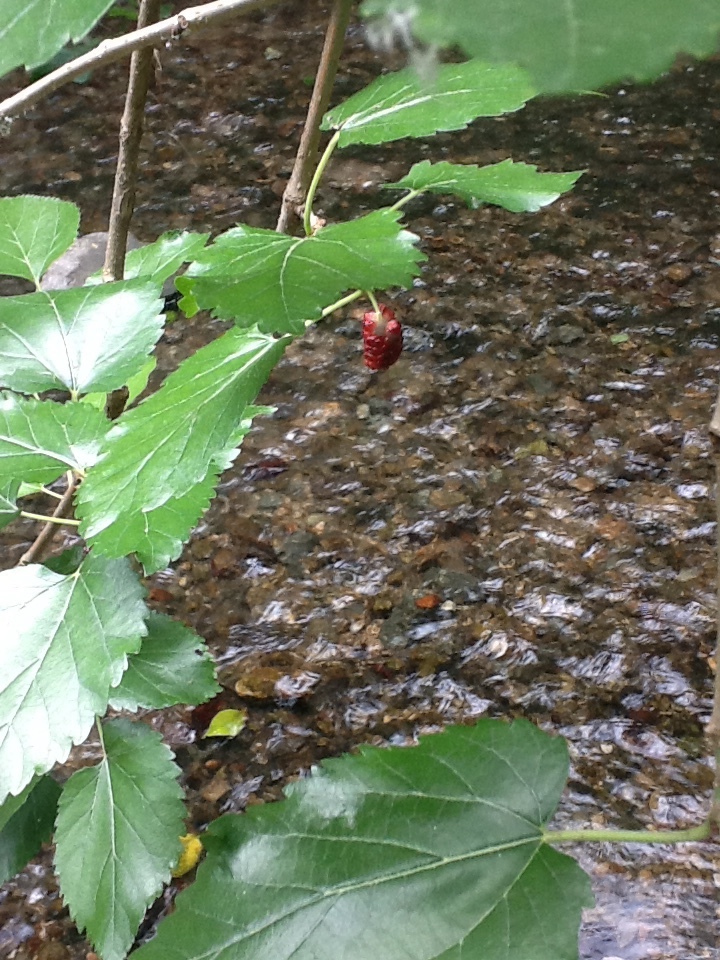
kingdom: Plantae
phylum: Tracheophyta
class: Magnoliopsida
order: Rosales
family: Moraceae
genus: Morus
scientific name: Morus alba
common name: White mulberry
